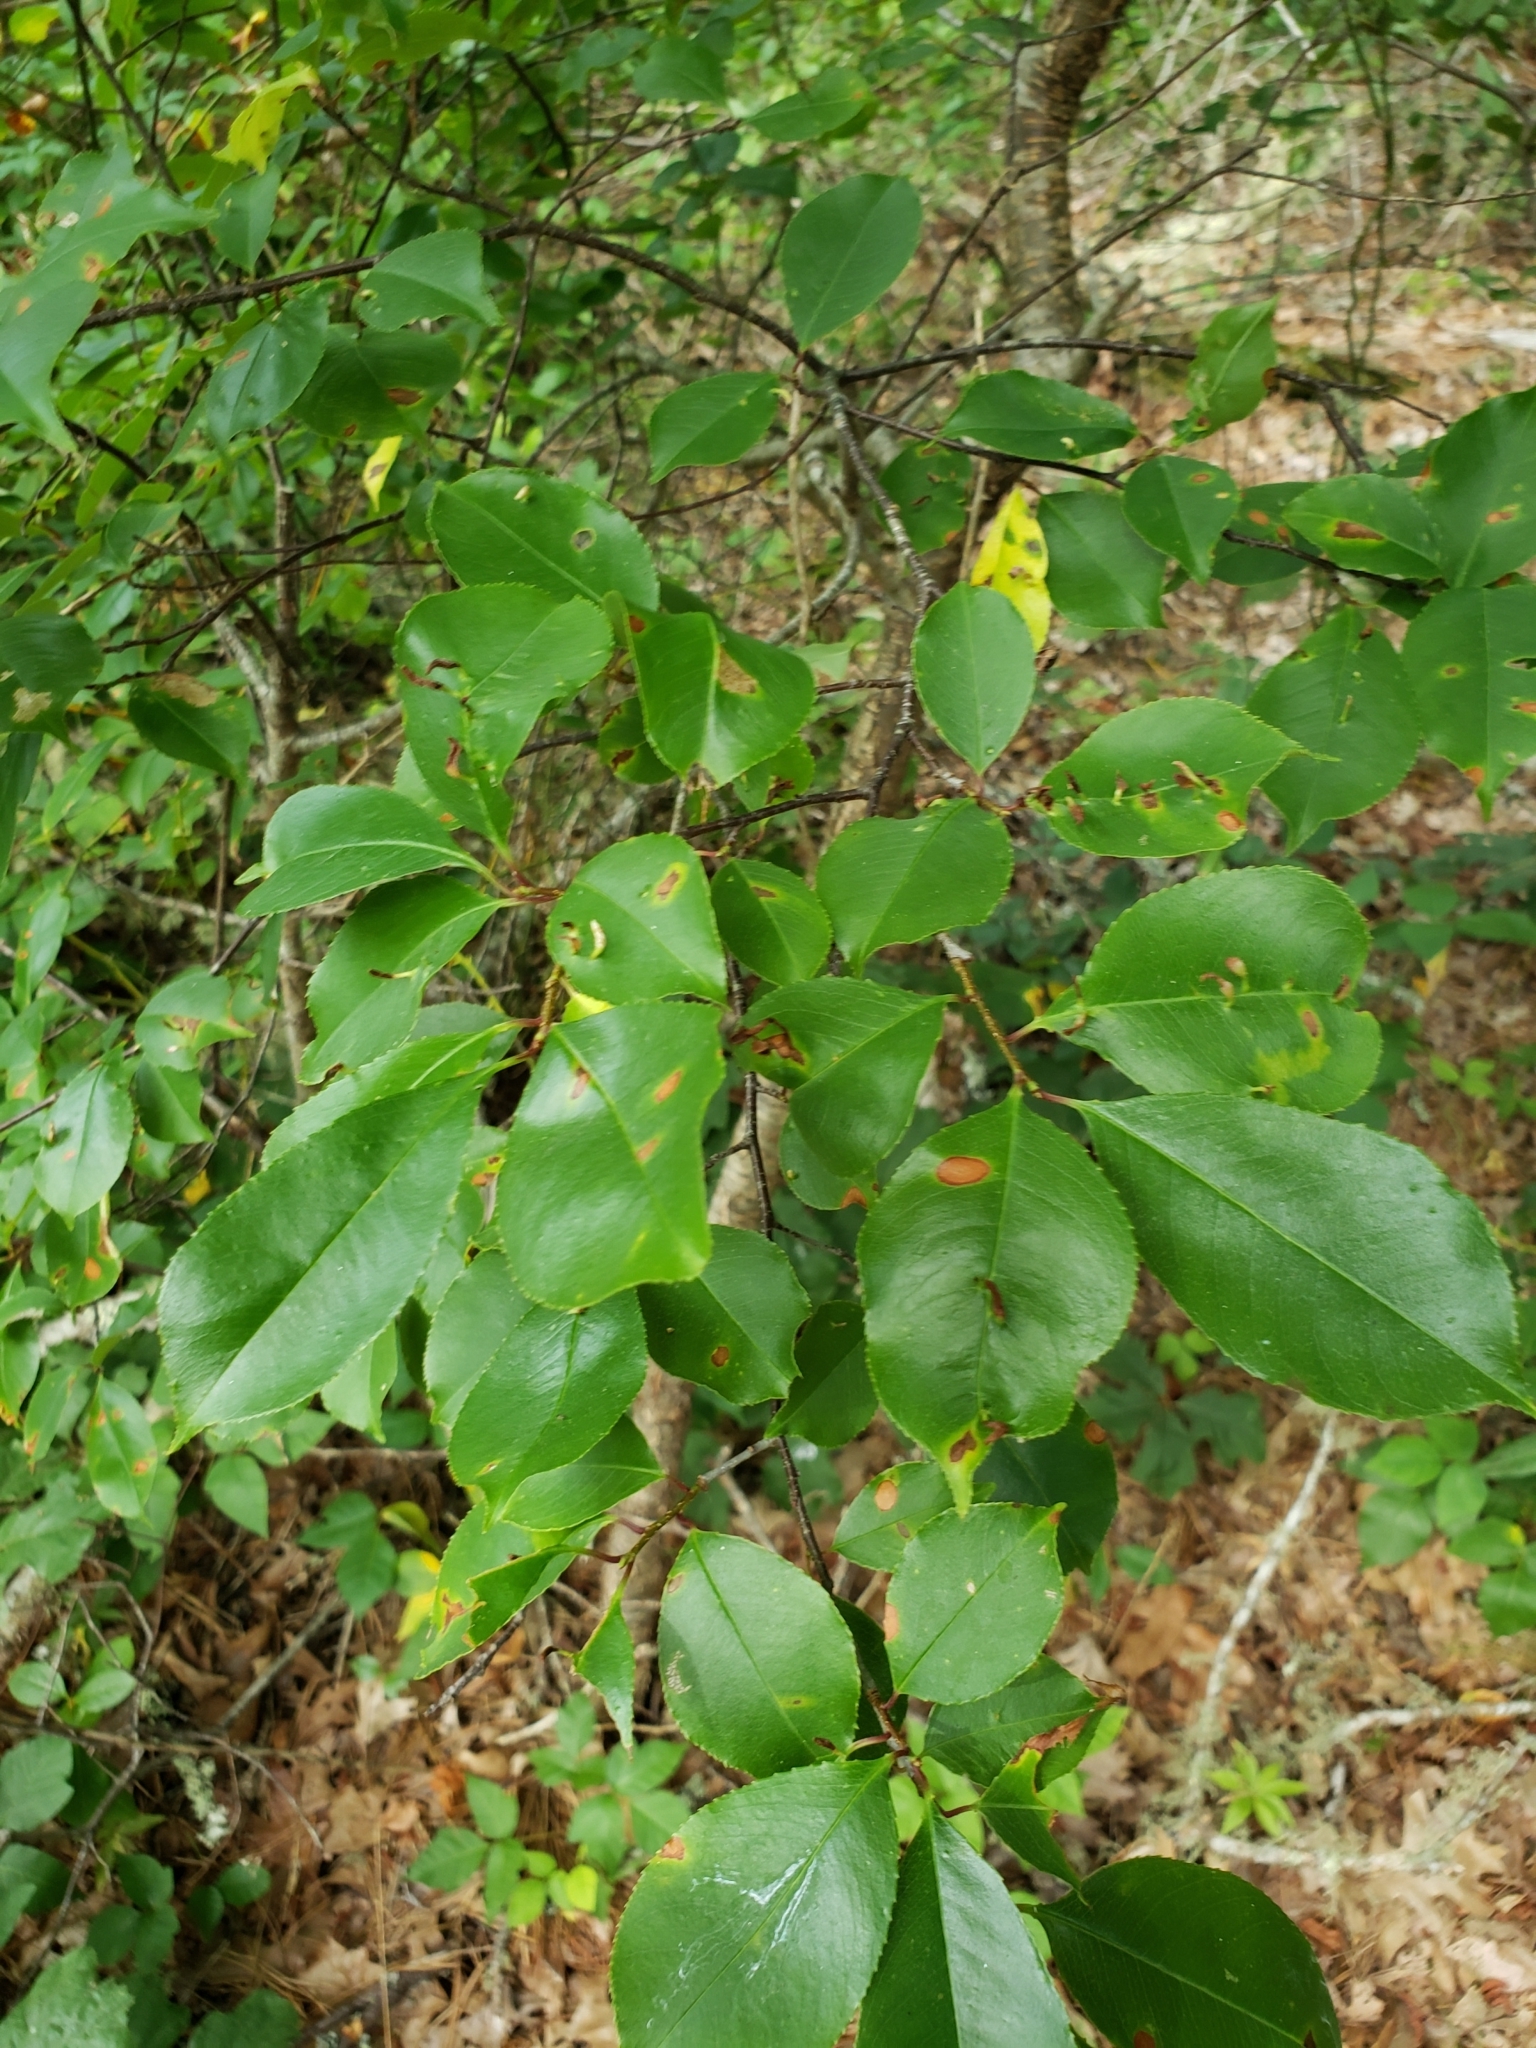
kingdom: Plantae
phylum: Tracheophyta
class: Magnoliopsida
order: Rosales
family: Rosaceae
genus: Prunus
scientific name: Prunus serotina
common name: Black cherry
